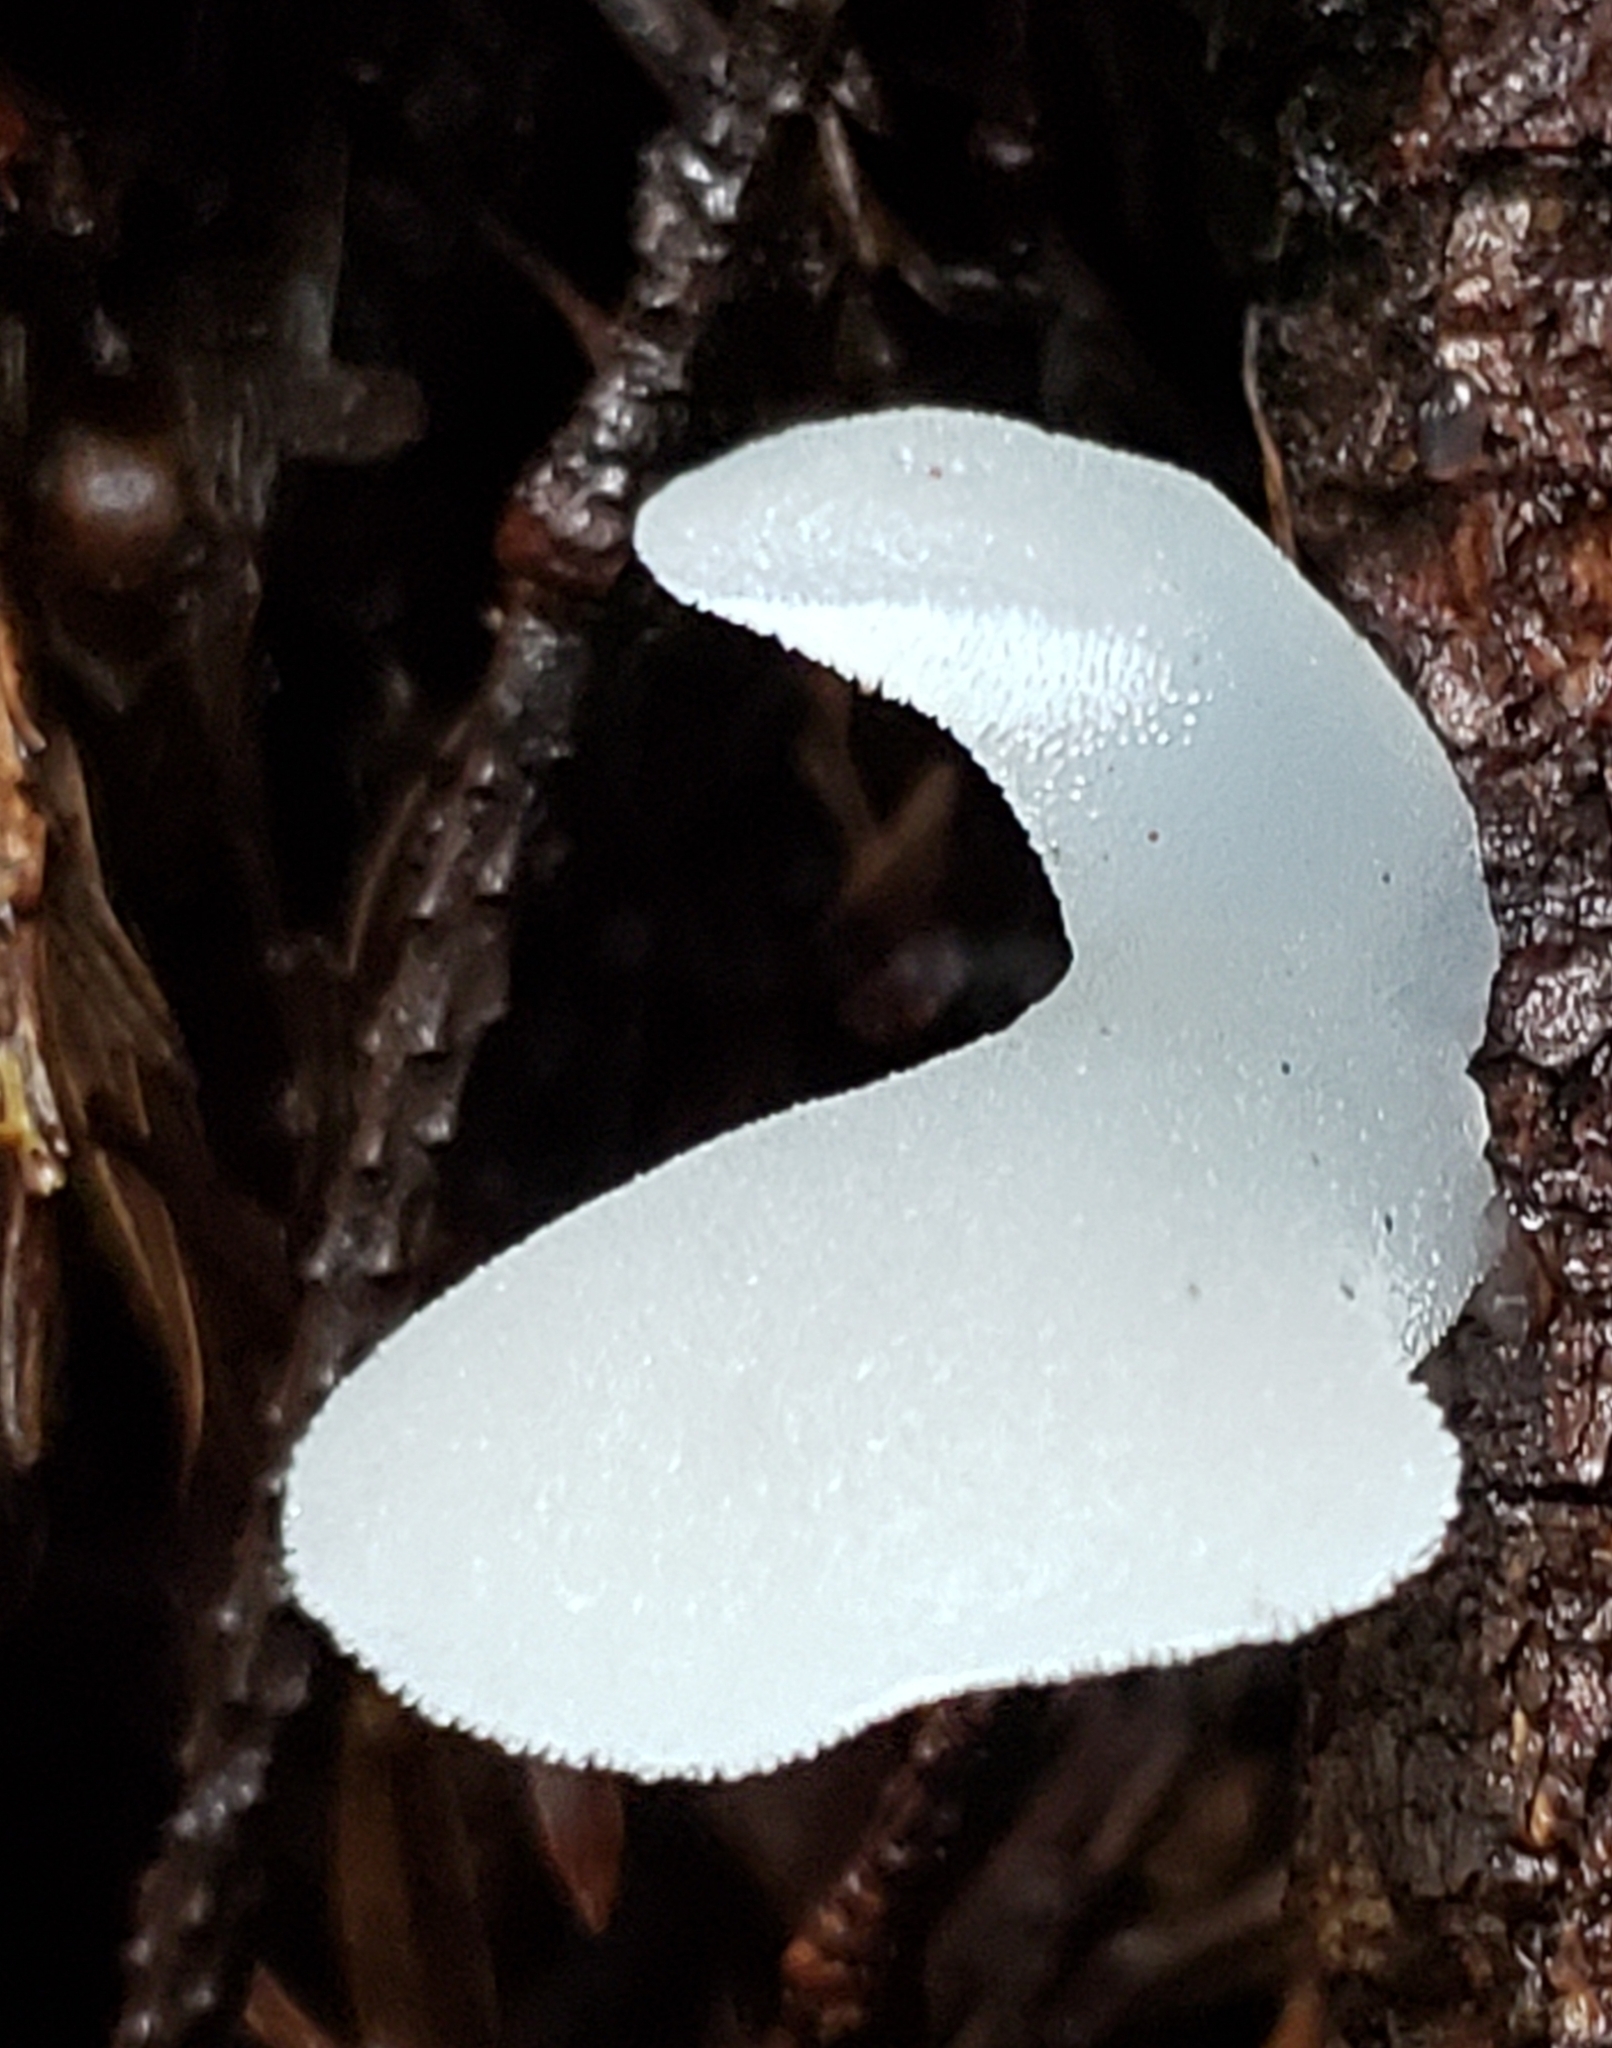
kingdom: Fungi
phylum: Basidiomycota
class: Agaricomycetes
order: Auriculariales
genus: Pseudohydnum
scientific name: Pseudohydnum gelatinosum
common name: Jelly tongue
